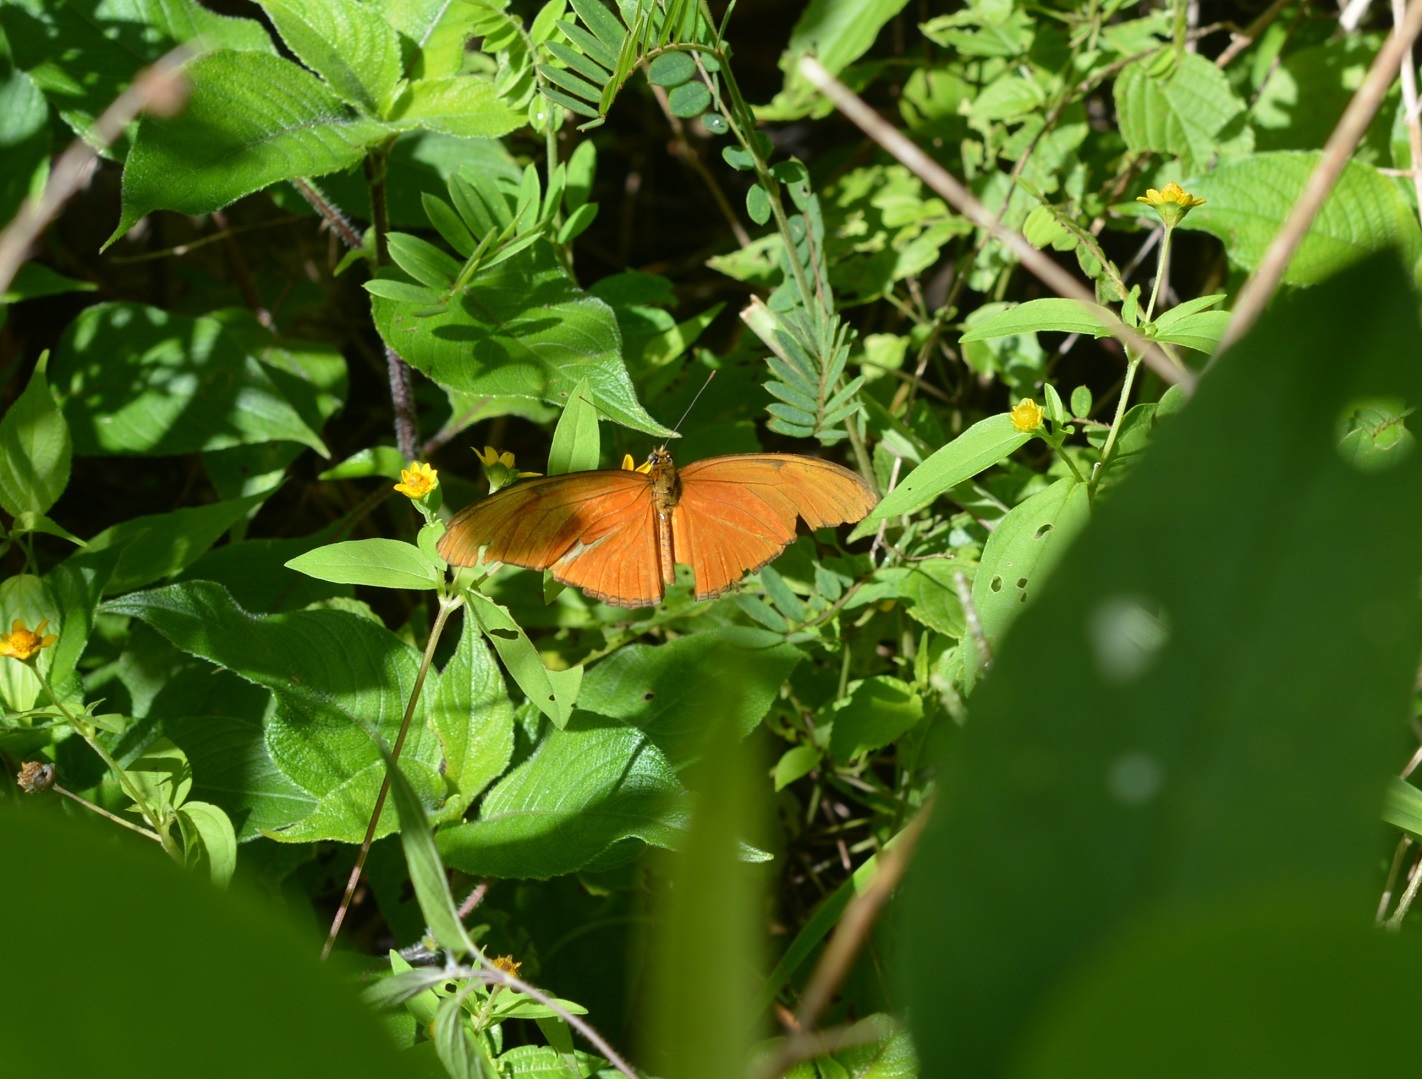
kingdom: Animalia
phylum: Arthropoda
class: Insecta
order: Lepidoptera
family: Nymphalidae
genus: Dryas
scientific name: Dryas iulia
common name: Flambeau
